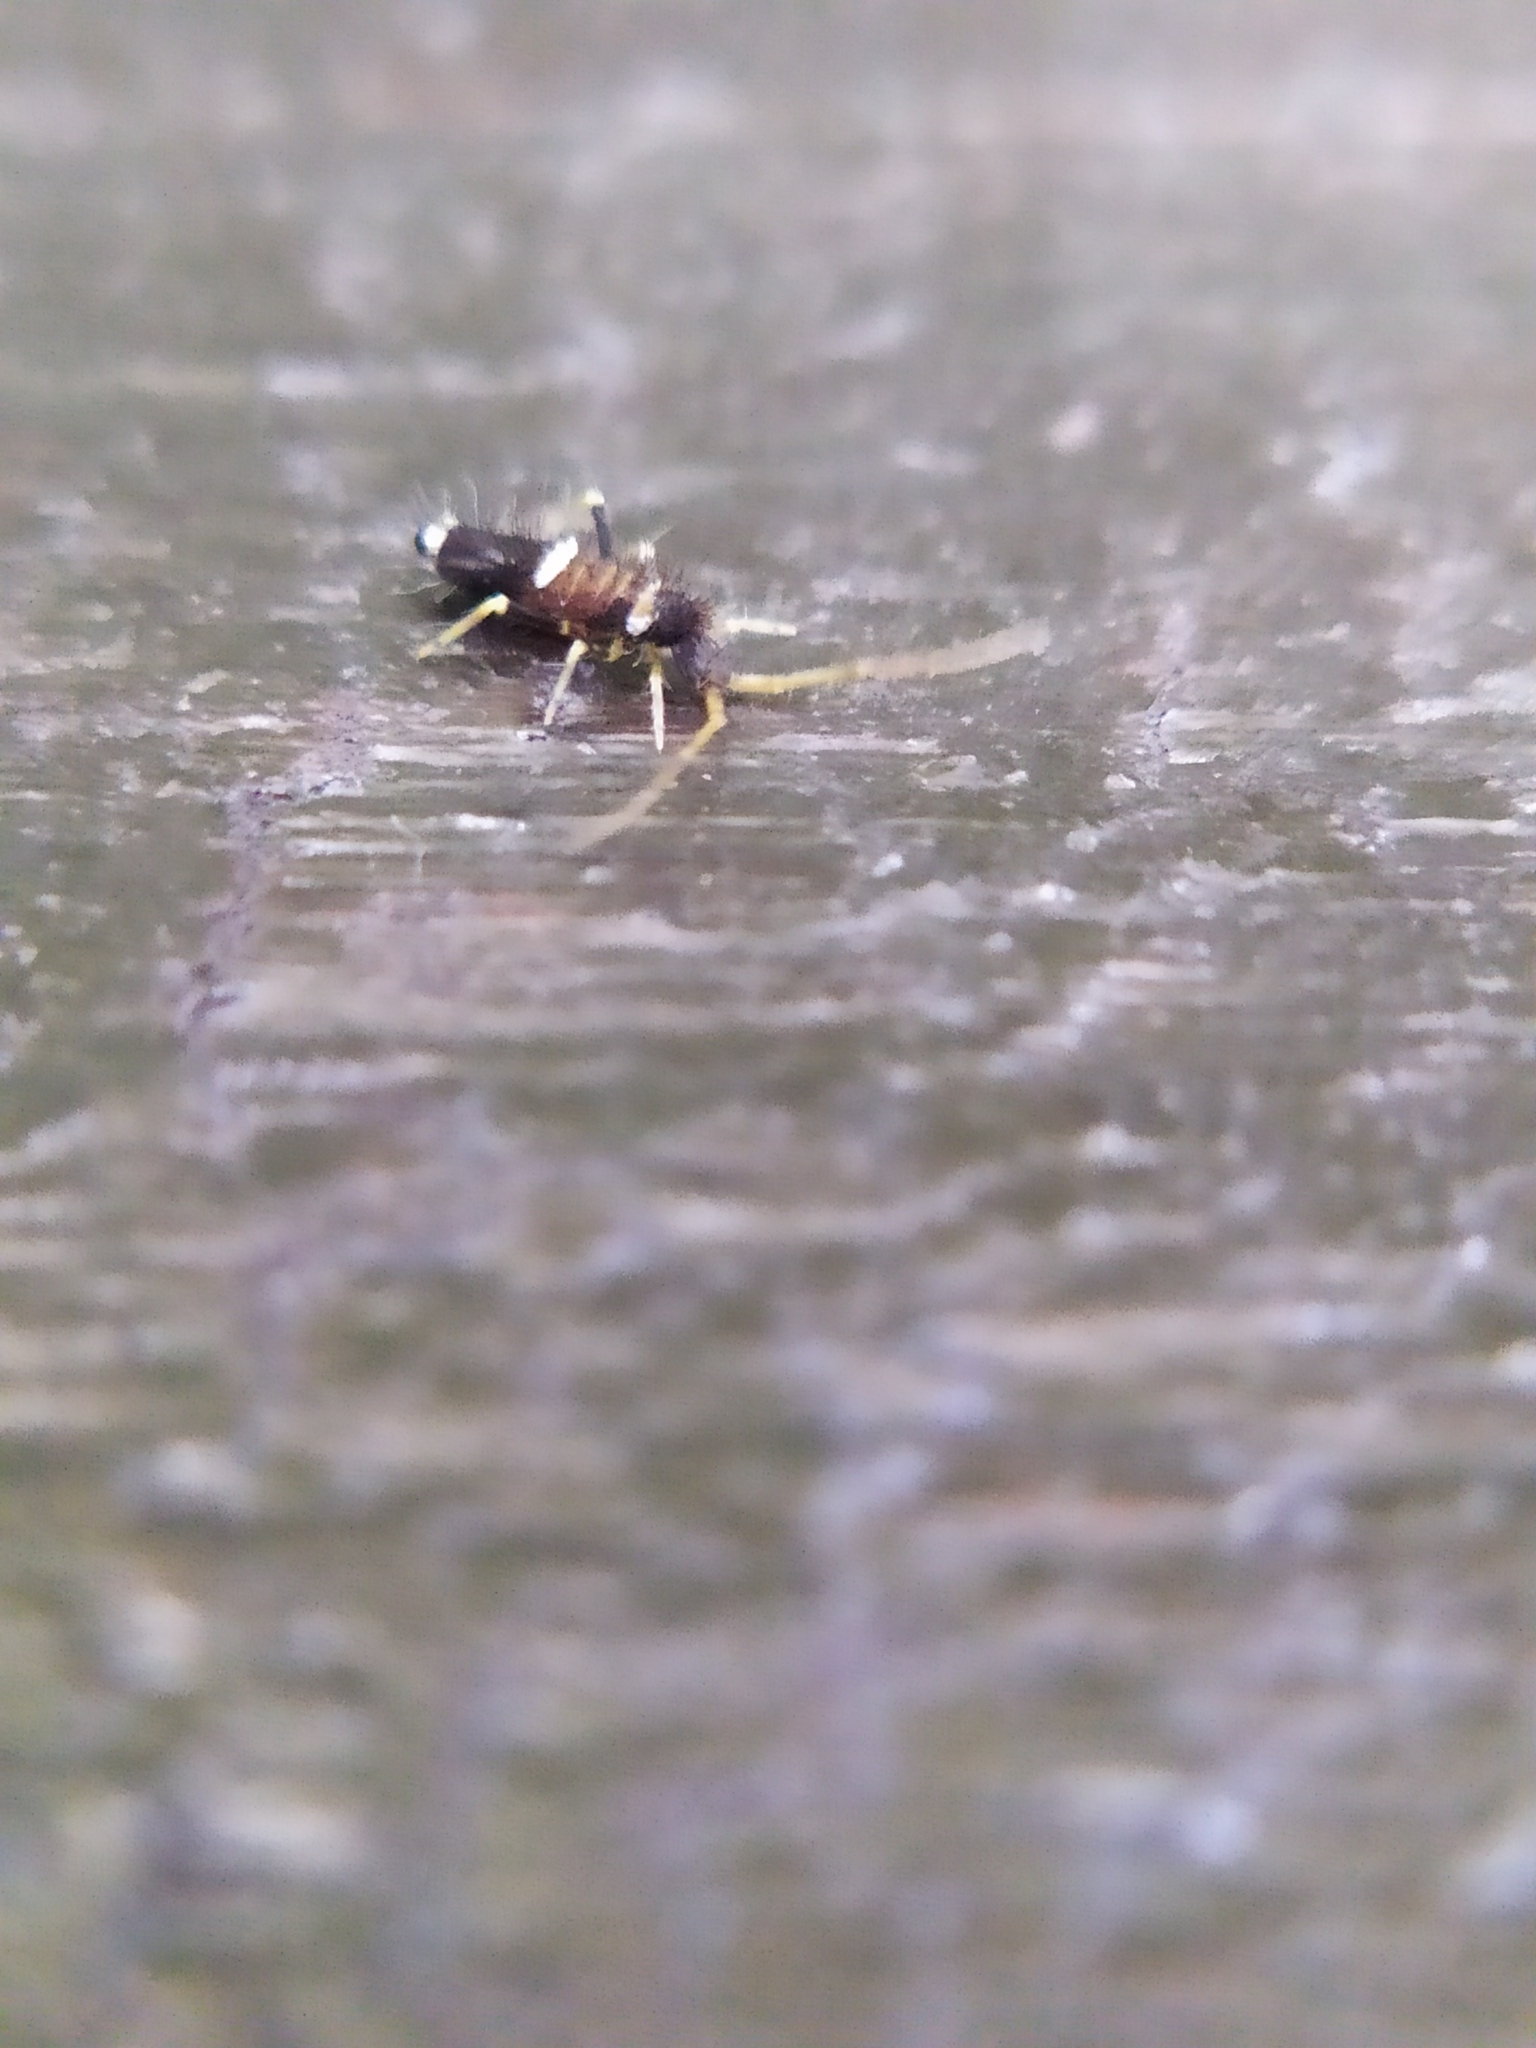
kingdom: Animalia
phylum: Arthropoda
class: Collembola
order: Entomobryomorpha
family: Entomobryidae
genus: Entomobrya
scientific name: Entomobrya dorsalis
